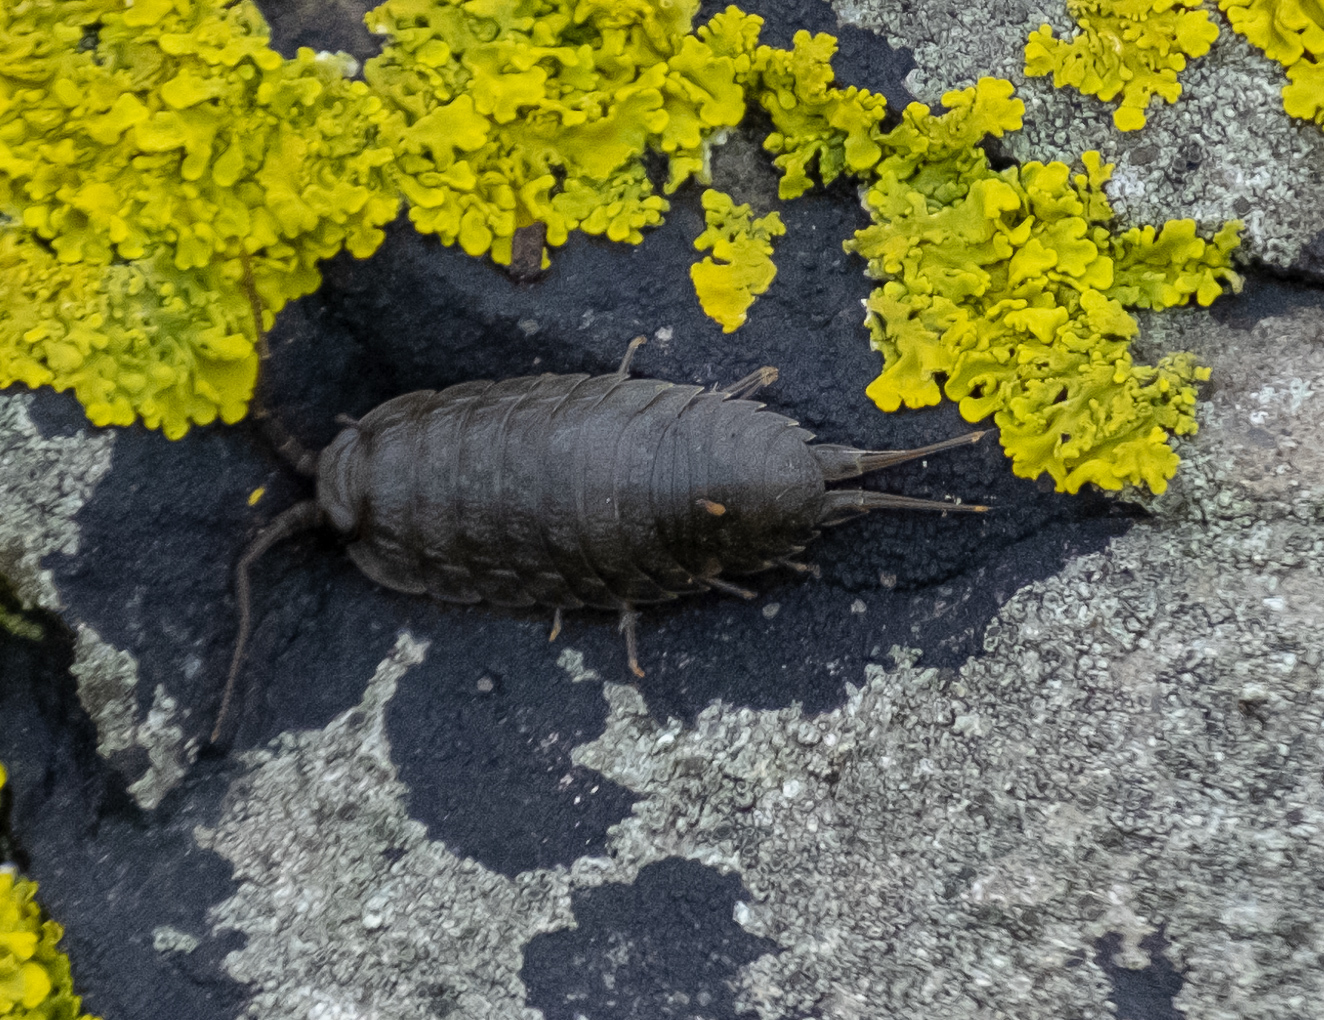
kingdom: Animalia
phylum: Arthropoda
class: Malacostraca
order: Isopoda
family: Ligiidae
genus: Ligia
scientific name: Ligia oceanica
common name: Sea slater
